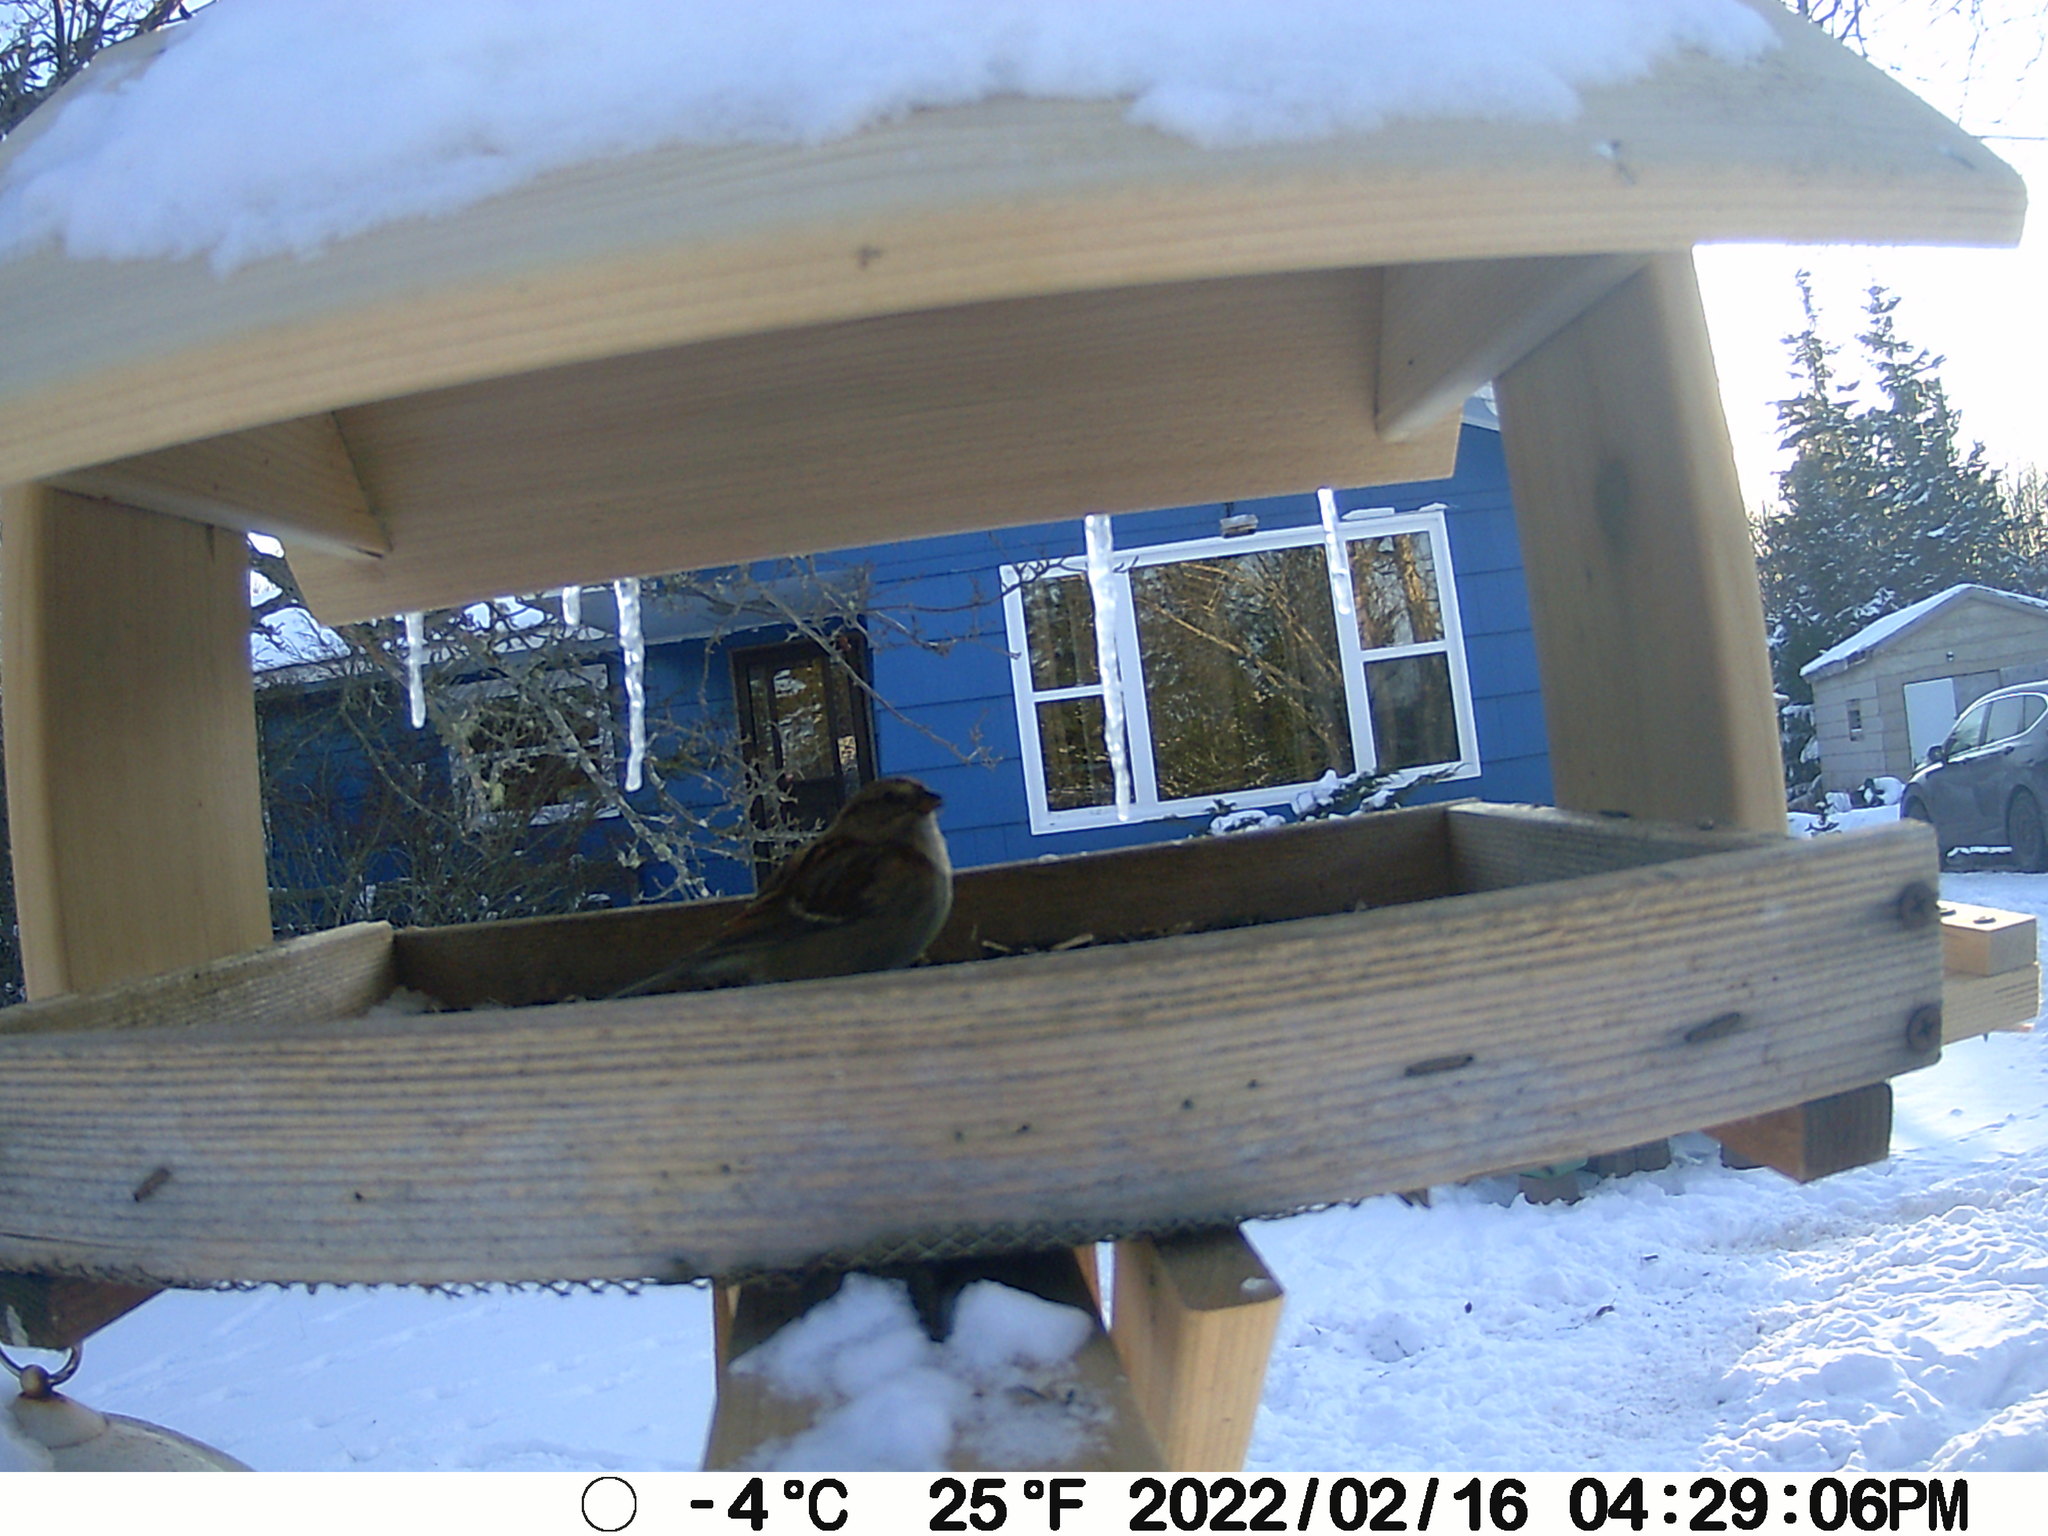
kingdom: Animalia
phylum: Chordata
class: Aves
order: Passeriformes
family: Passerellidae
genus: Spizelloides
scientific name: Spizelloides arborea
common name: American tree sparrow
